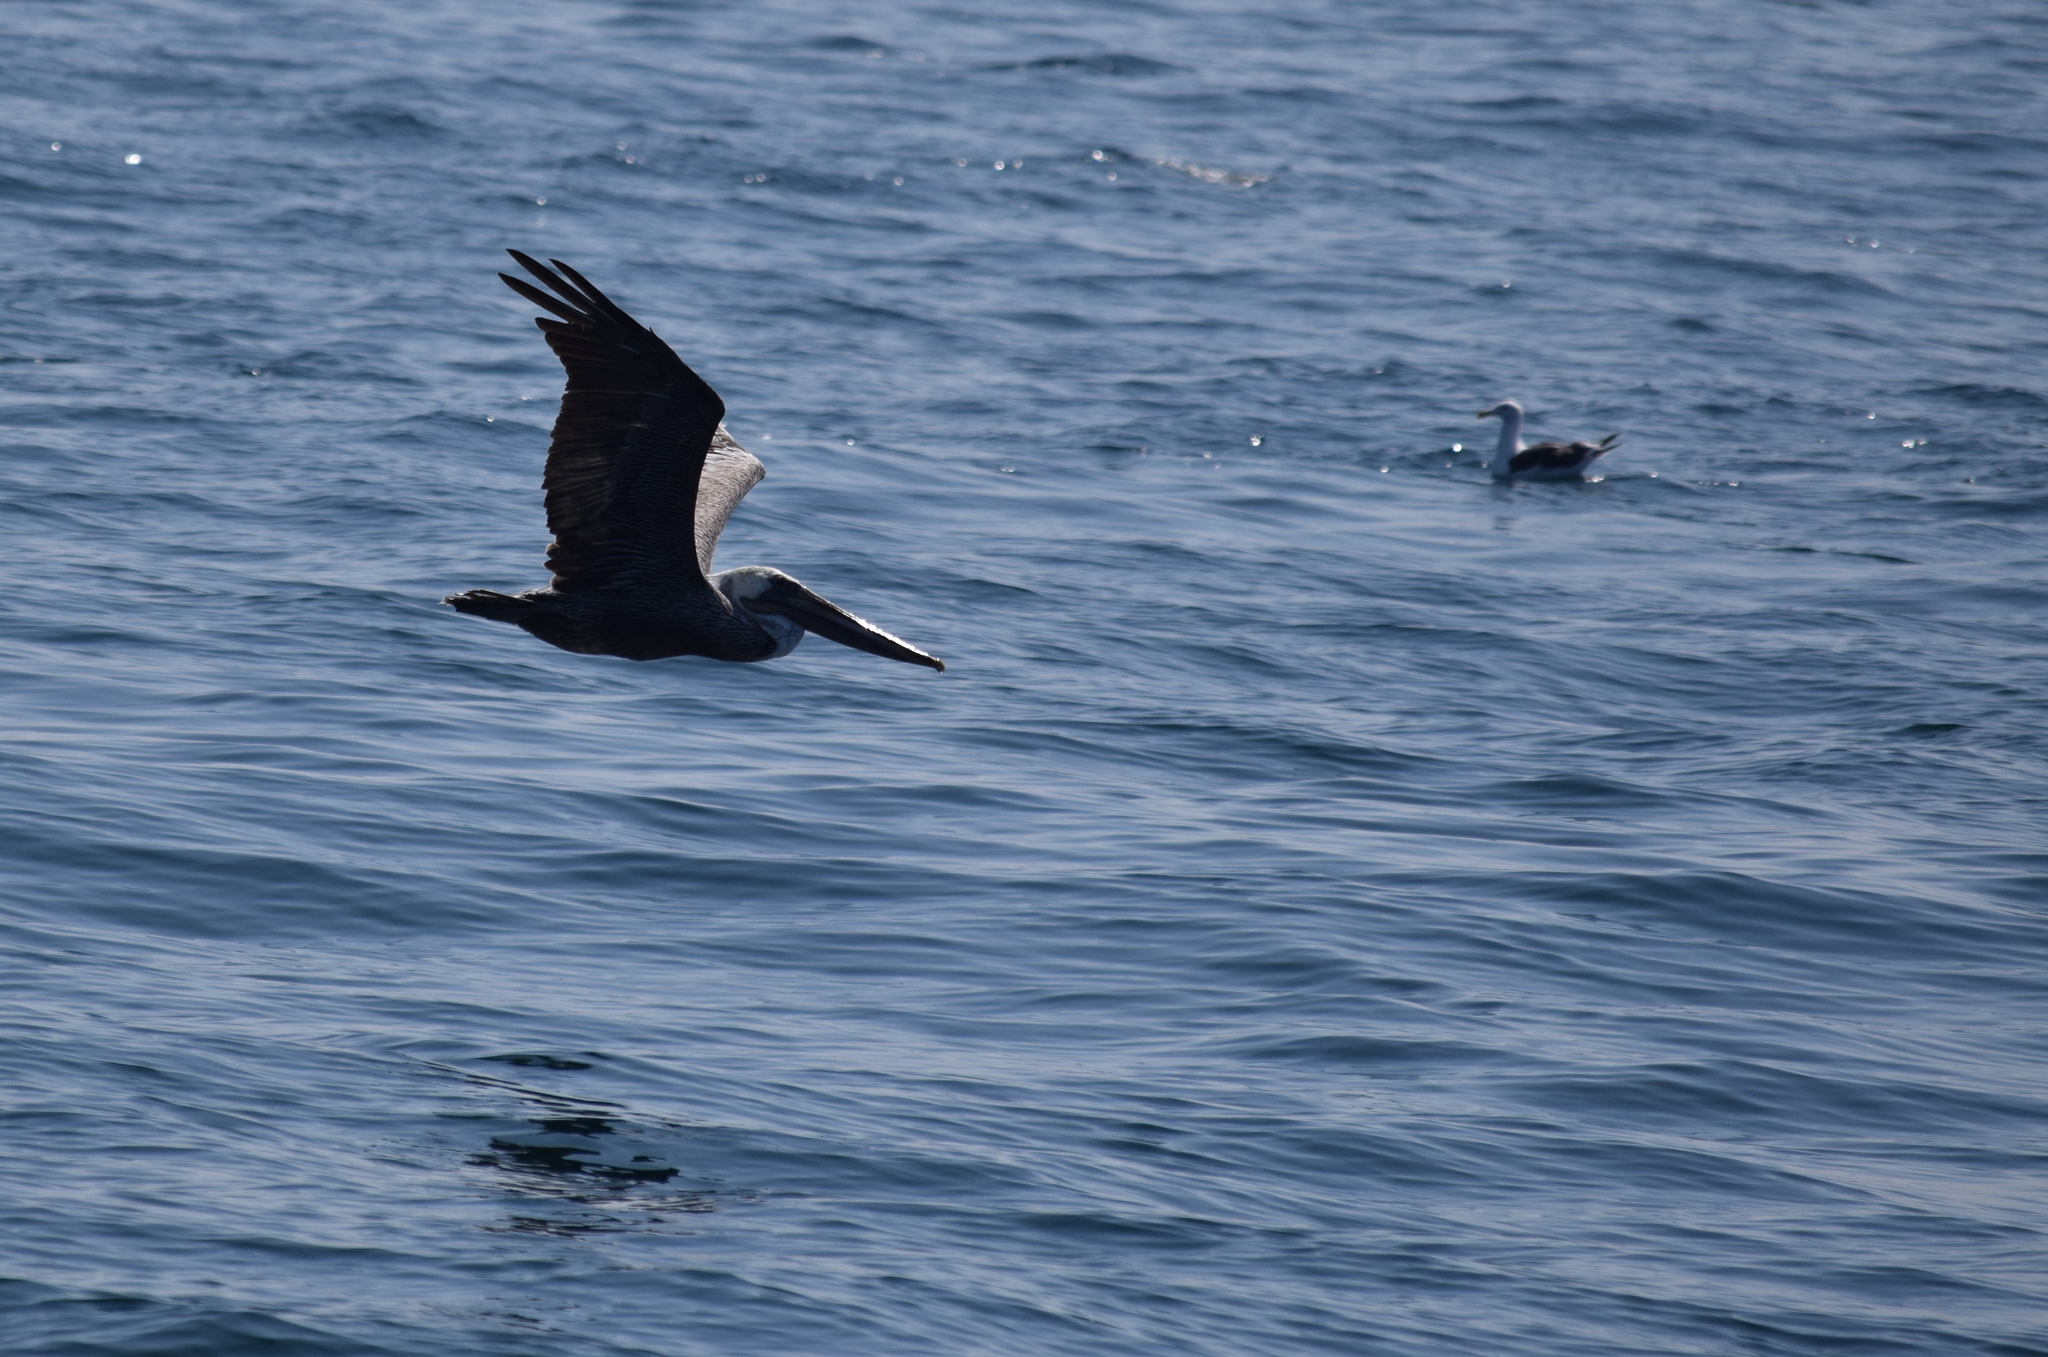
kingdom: Animalia
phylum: Chordata
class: Aves
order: Pelecaniformes
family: Pelecanidae
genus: Pelecanus
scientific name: Pelecanus occidentalis
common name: Brown pelican
